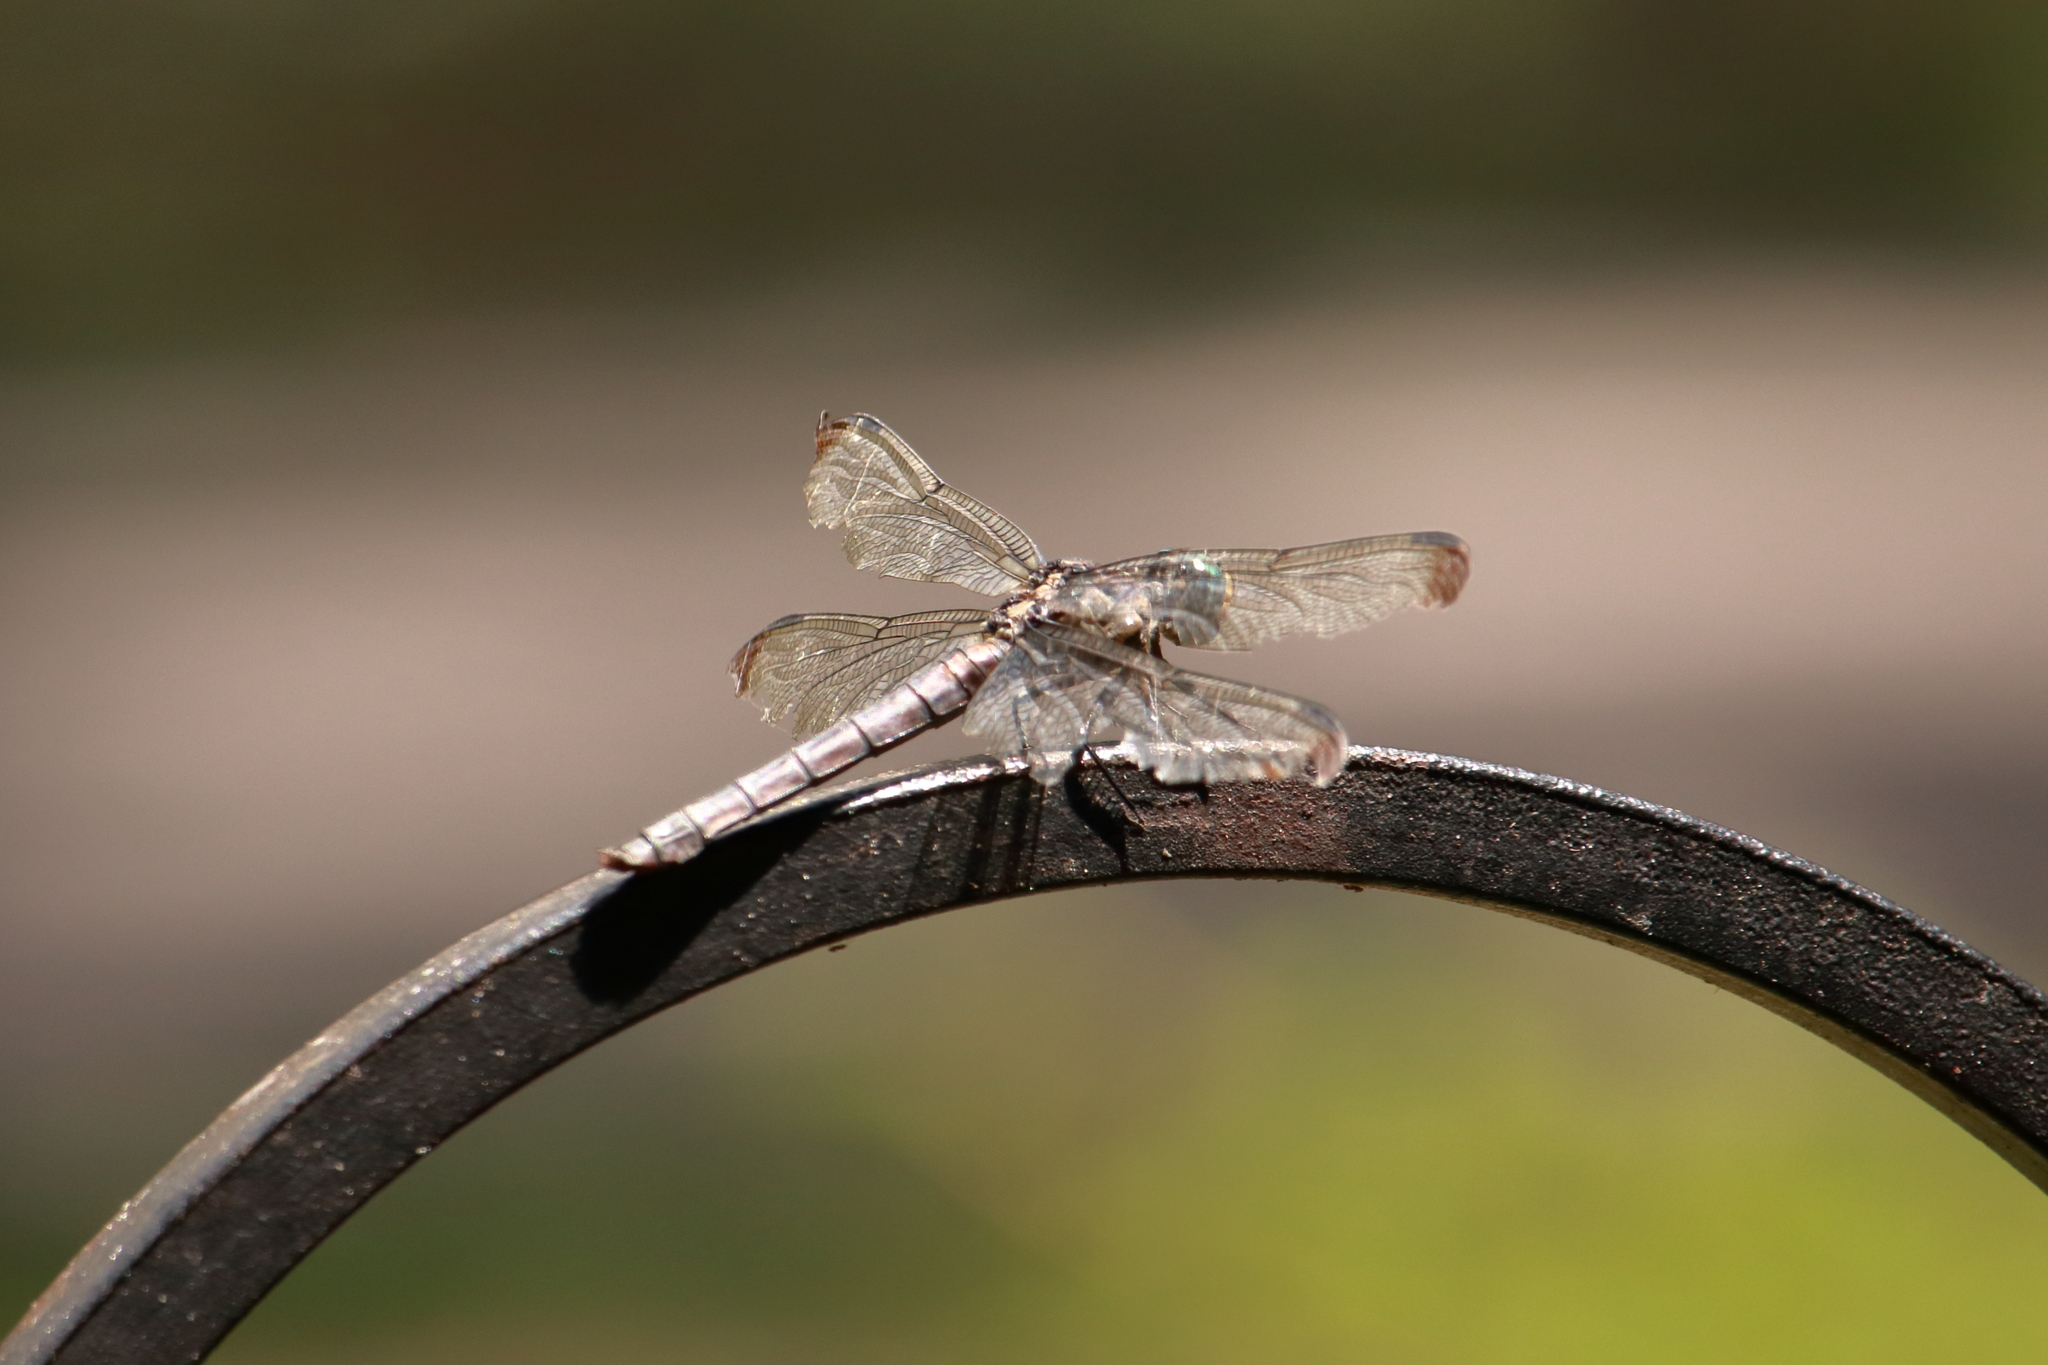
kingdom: Animalia
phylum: Arthropoda
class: Insecta
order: Odonata
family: Libellulidae
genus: Libellula
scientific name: Libellula vibrans
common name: Great blue skimmer
